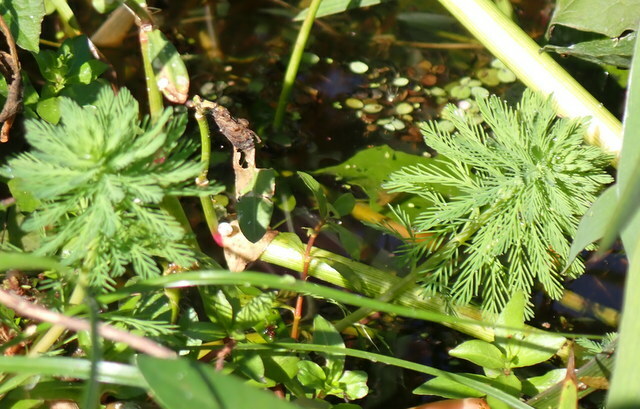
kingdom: Plantae
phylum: Tracheophyta
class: Magnoliopsida
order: Saxifragales
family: Haloragaceae
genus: Myriophyllum
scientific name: Myriophyllum aquaticum
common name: Parrot's feather
